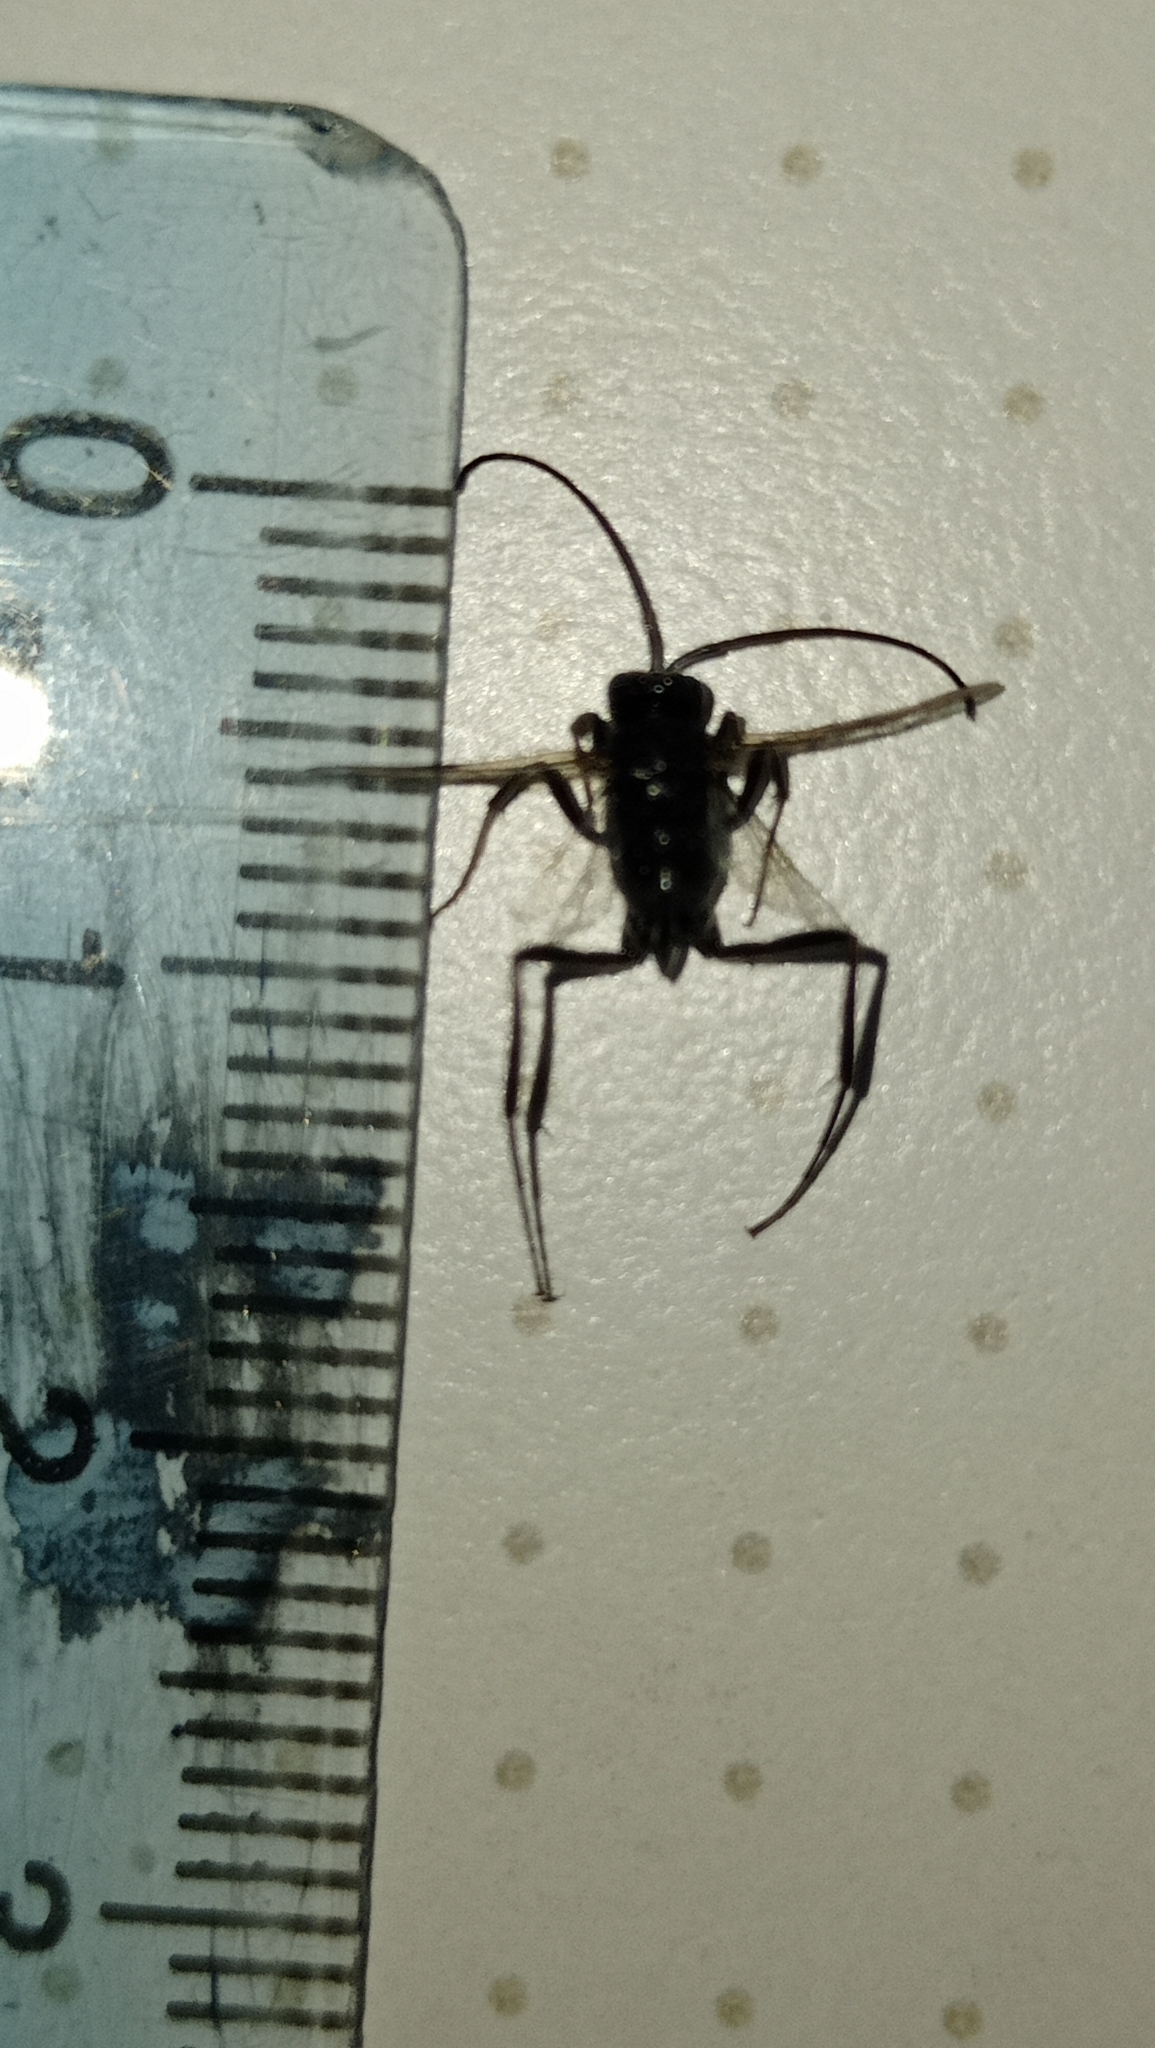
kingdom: Animalia
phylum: Arthropoda
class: Insecta
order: Hymenoptera
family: Evaniidae
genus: Evania
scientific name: Evania appendigaster
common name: Ensign wasp
